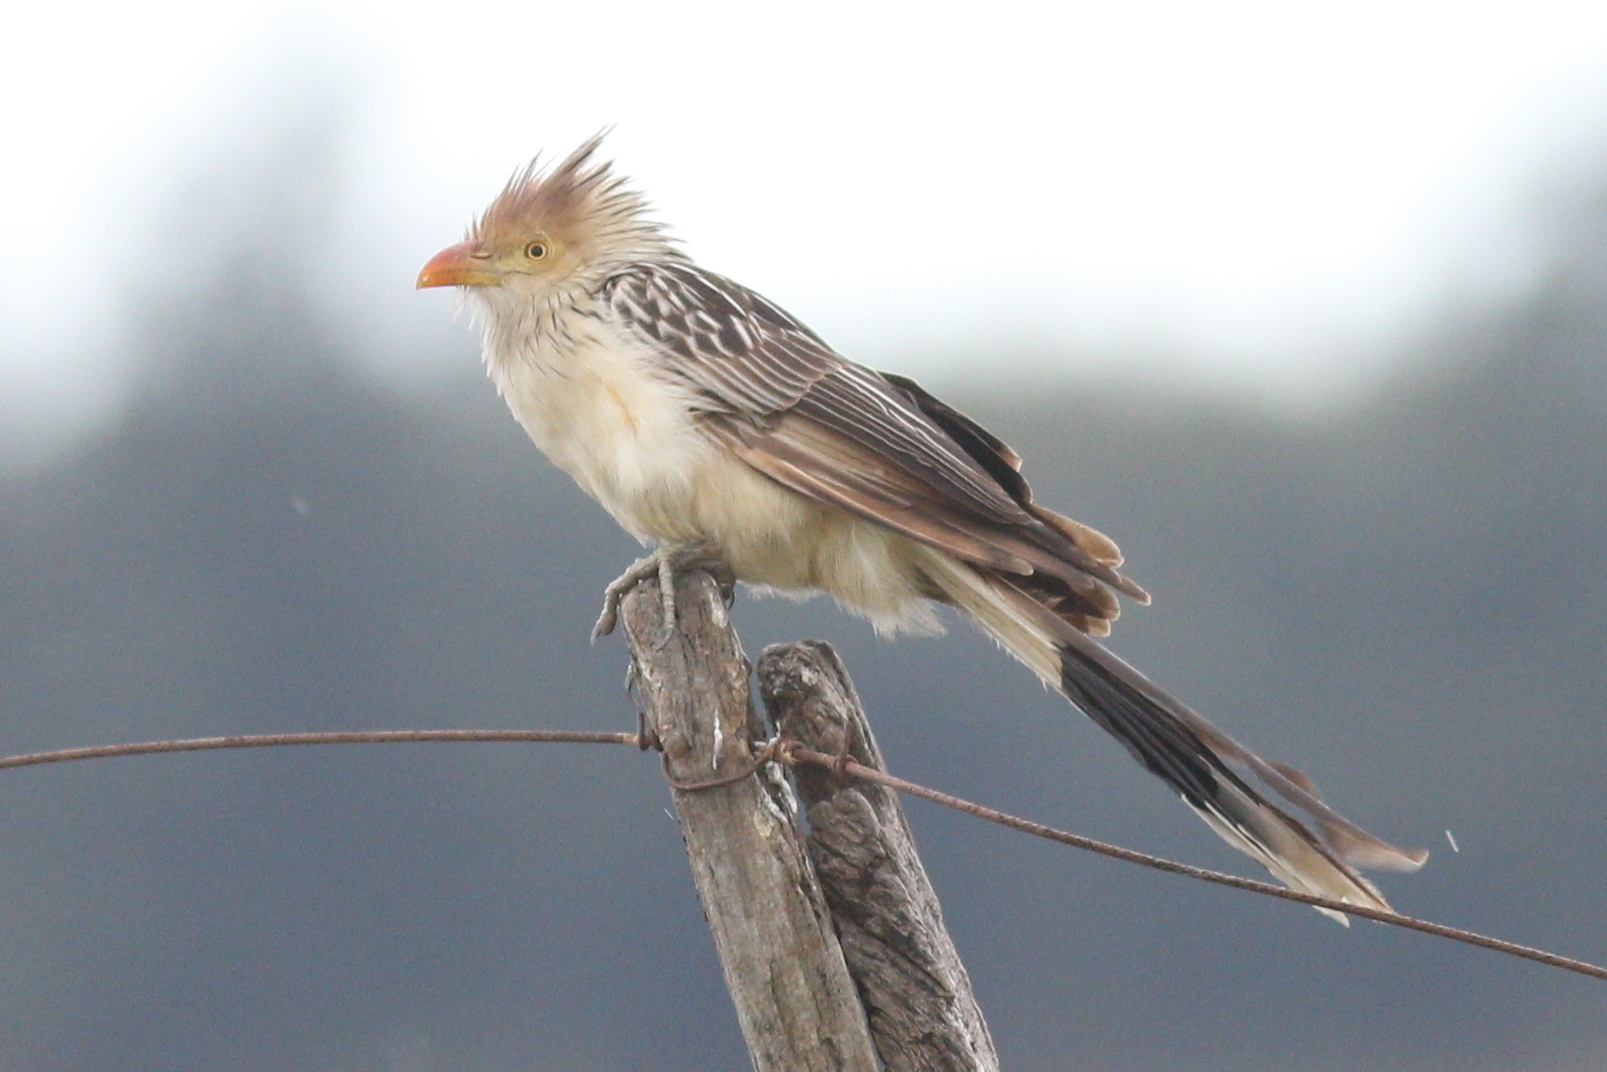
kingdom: Animalia
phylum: Chordata
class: Aves
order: Cuculiformes
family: Cuculidae
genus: Guira
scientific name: Guira guira
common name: Guira cuckoo
